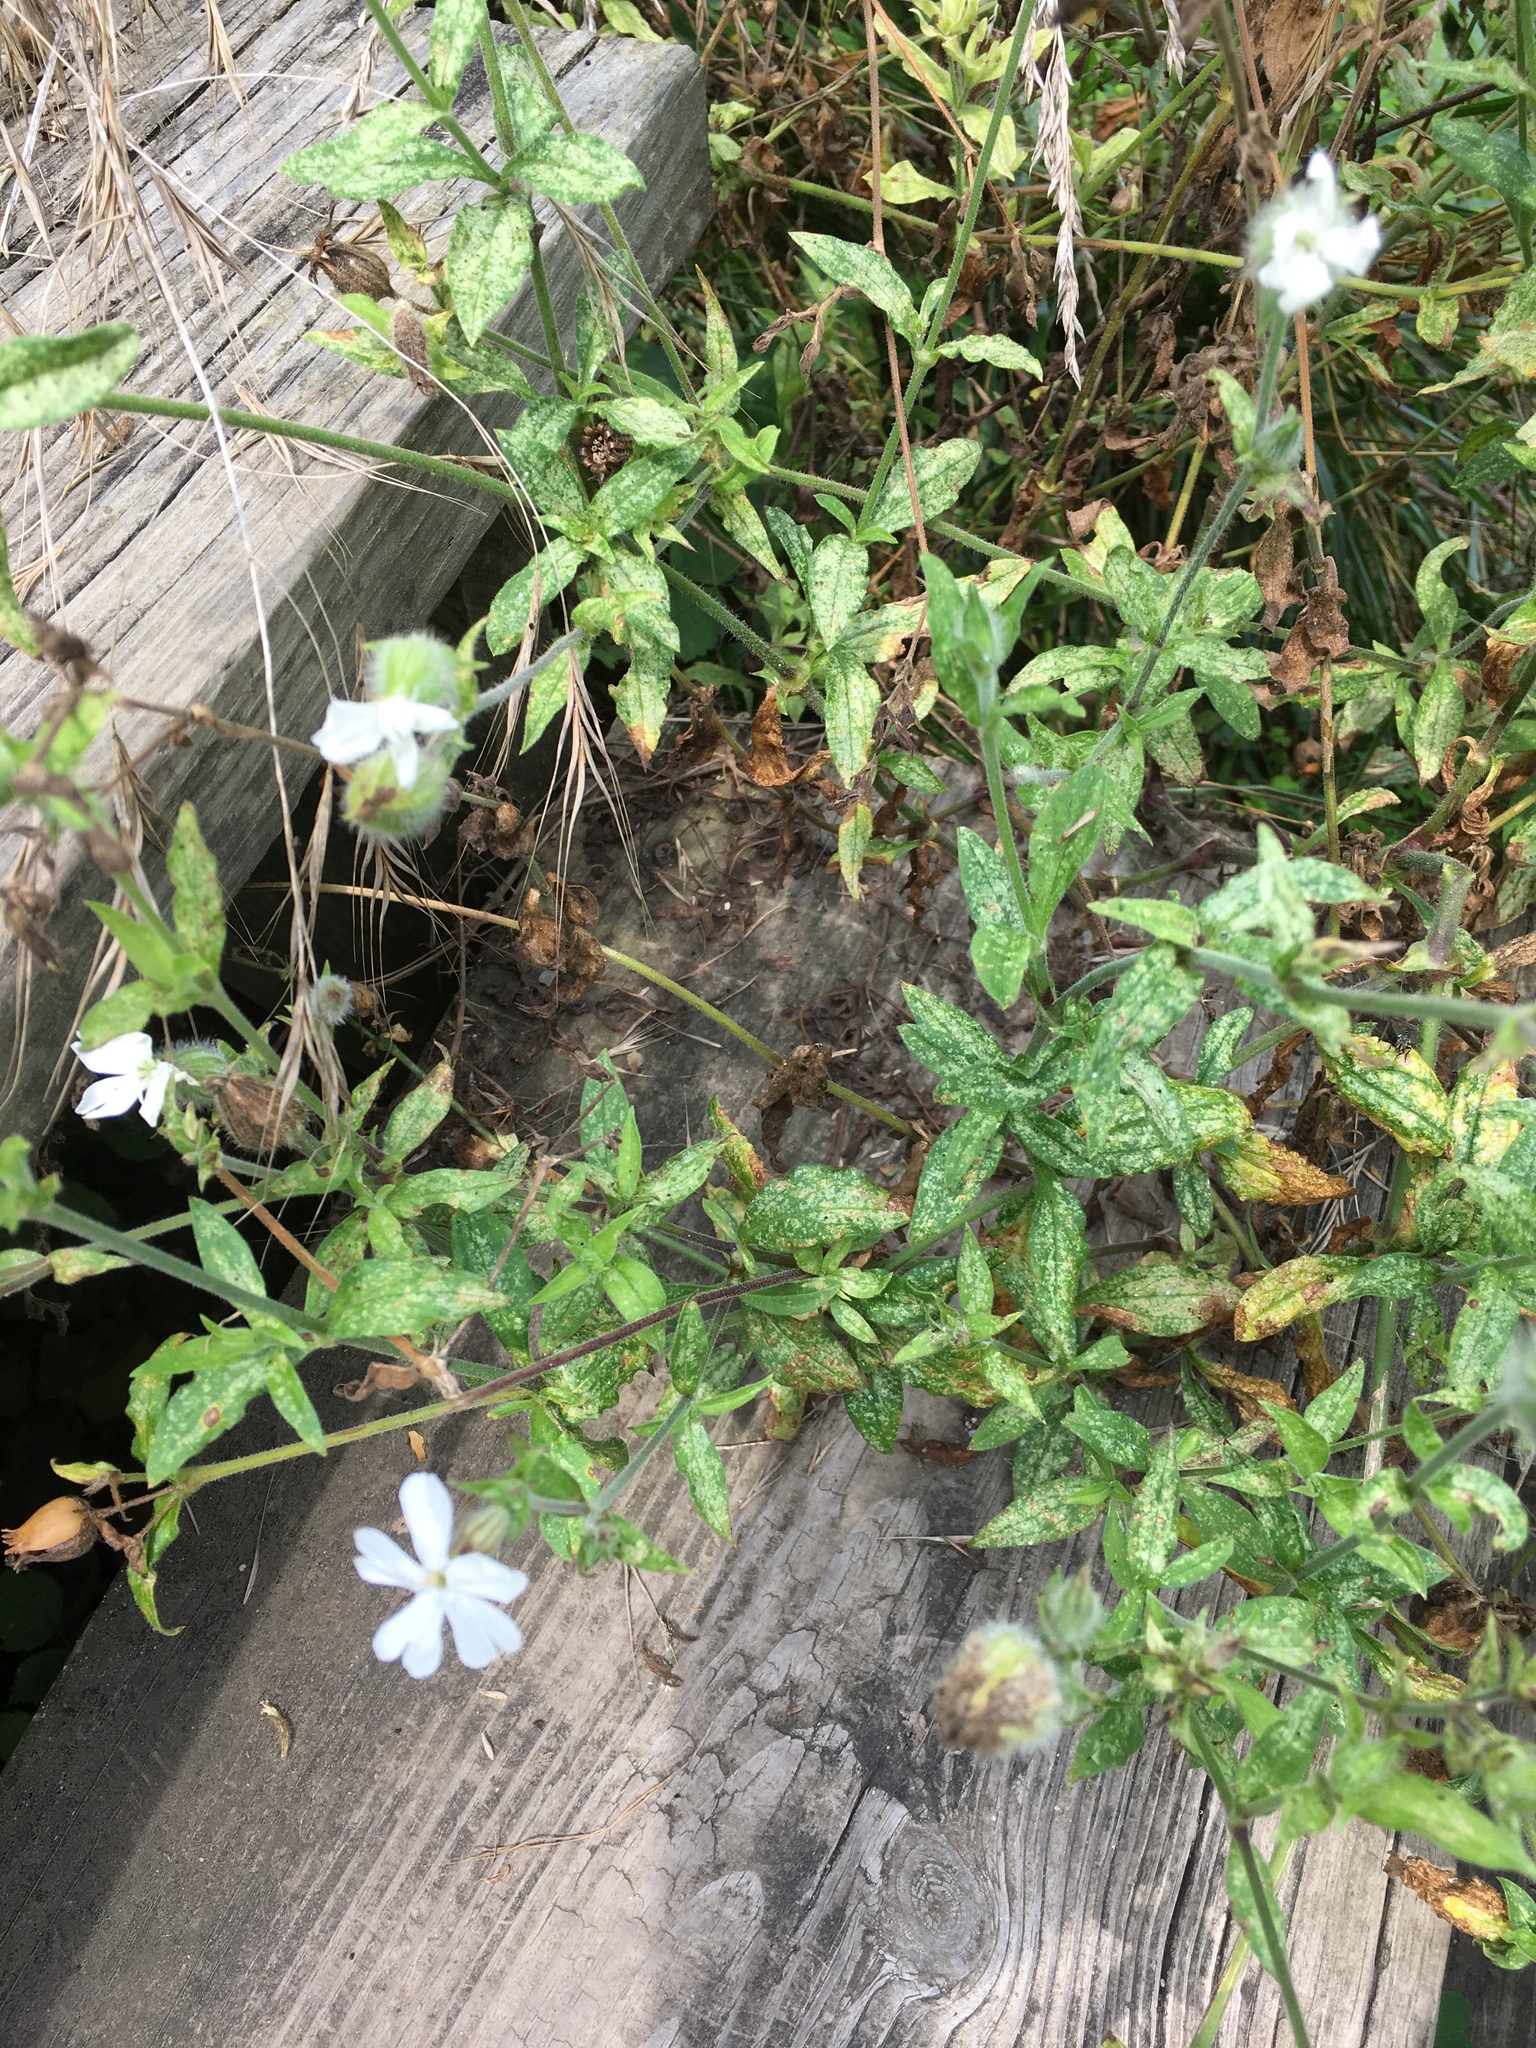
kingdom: Plantae
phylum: Tracheophyta
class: Magnoliopsida
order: Caryophyllales
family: Caryophyllaceae
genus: Silene
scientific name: Silene latifolia
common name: White campion
